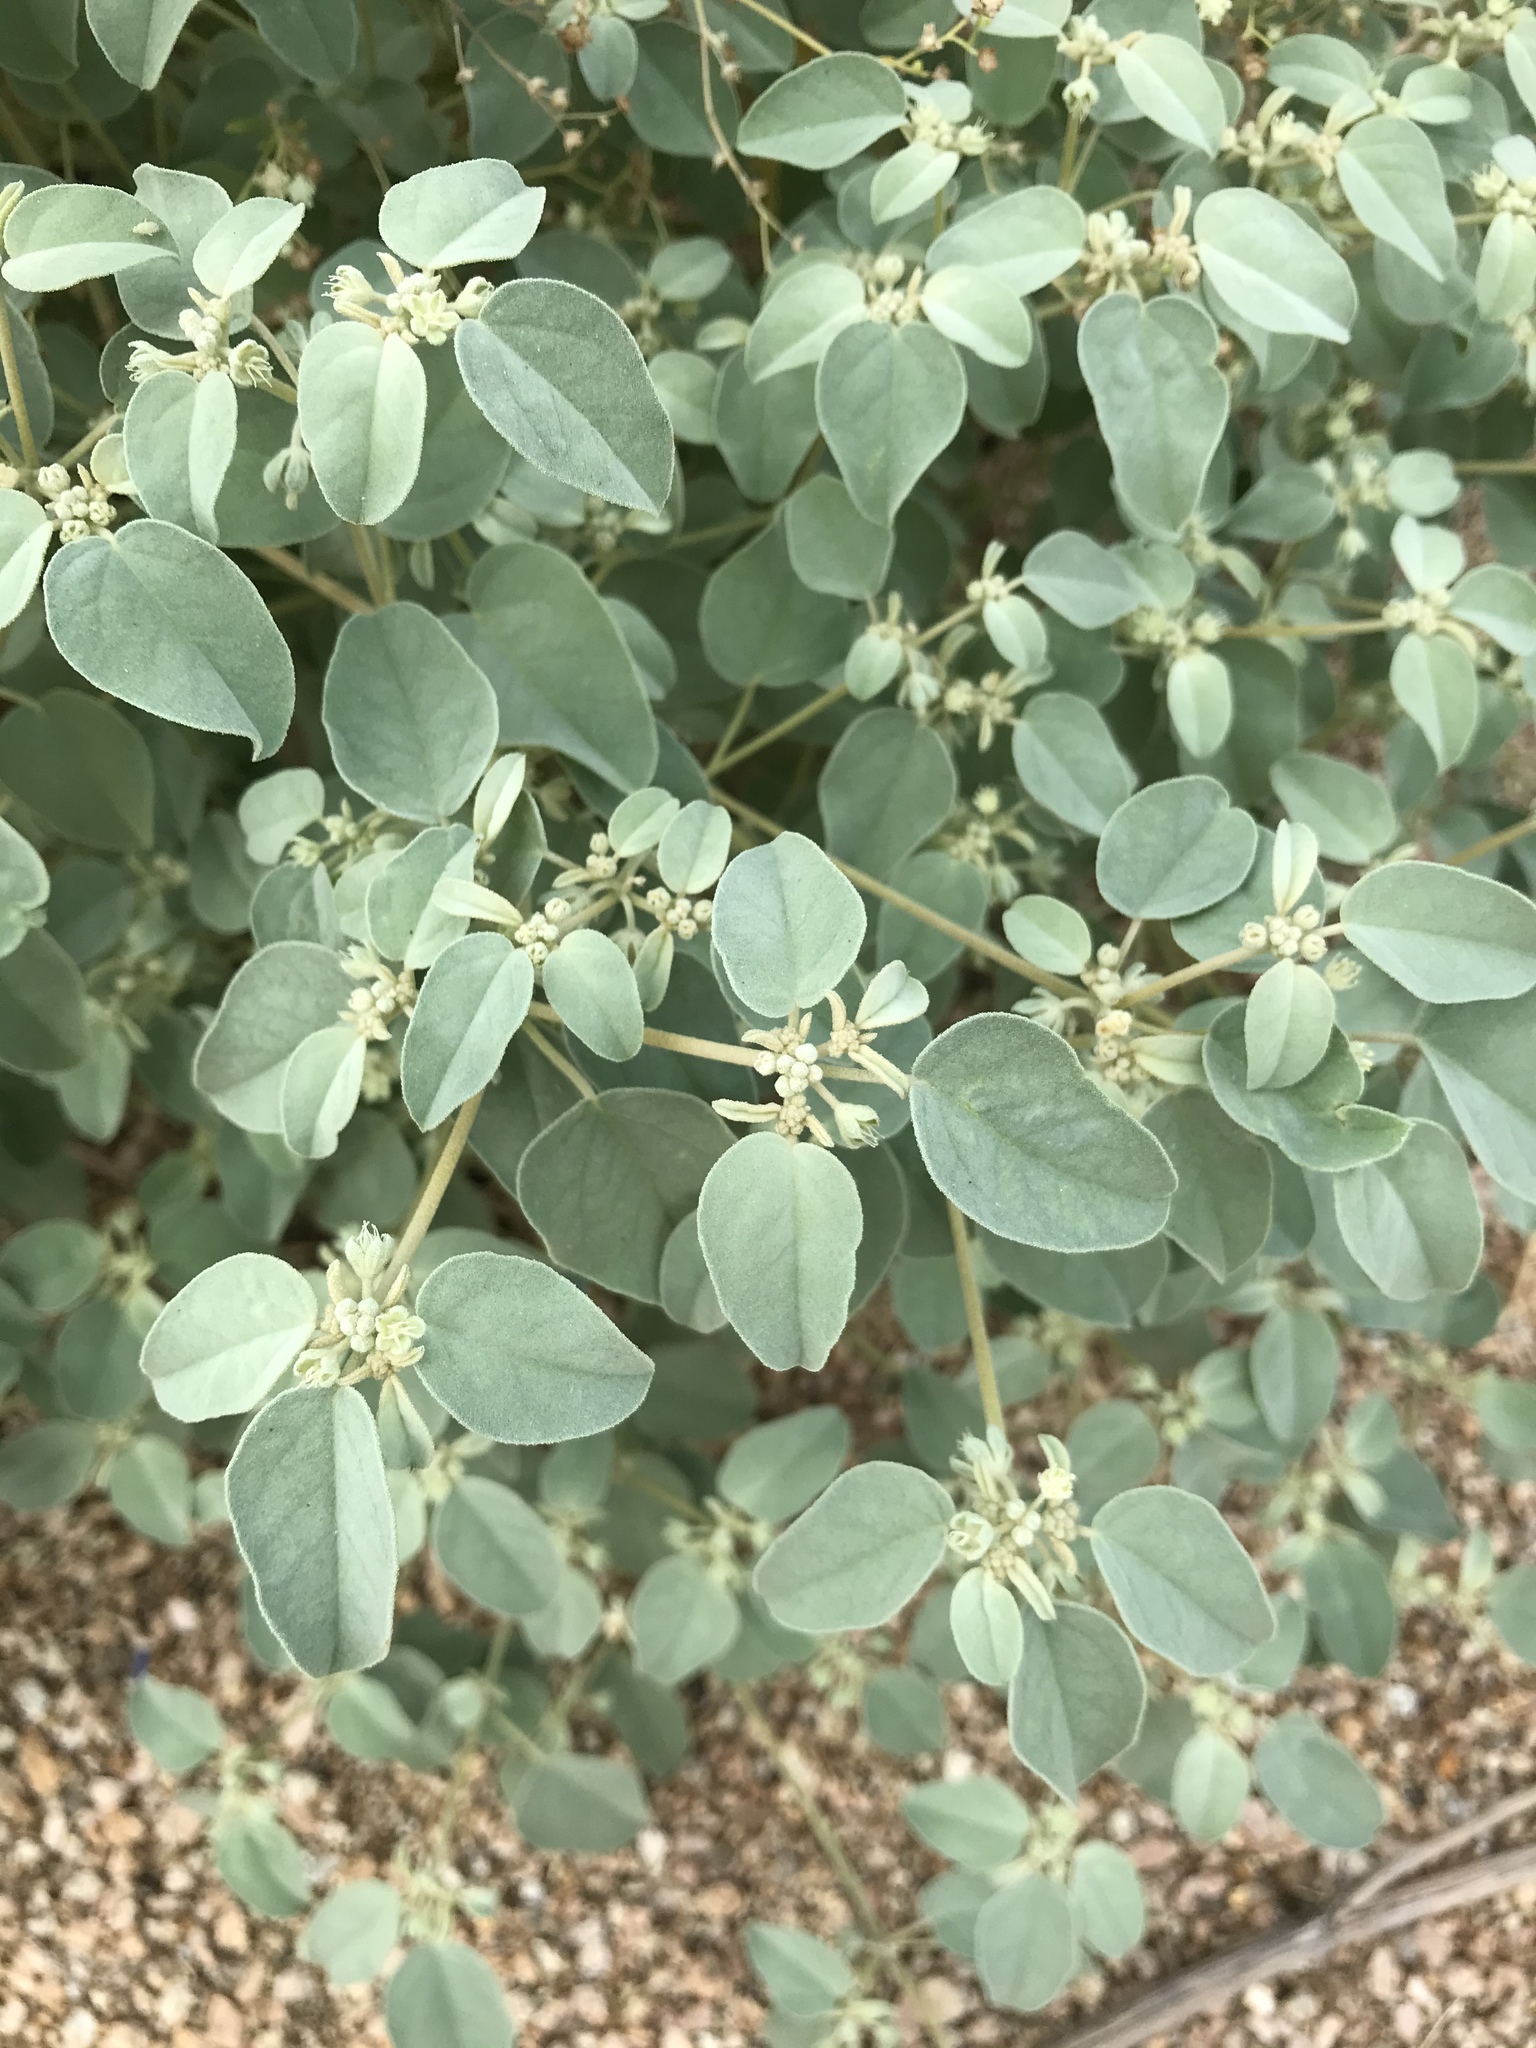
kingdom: Plantae
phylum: Tracheophyta
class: Magnoliopsida
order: Malpighiales
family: Euphorbiaceae
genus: Croton
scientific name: Croton monanthogynus
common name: One-seed croton
